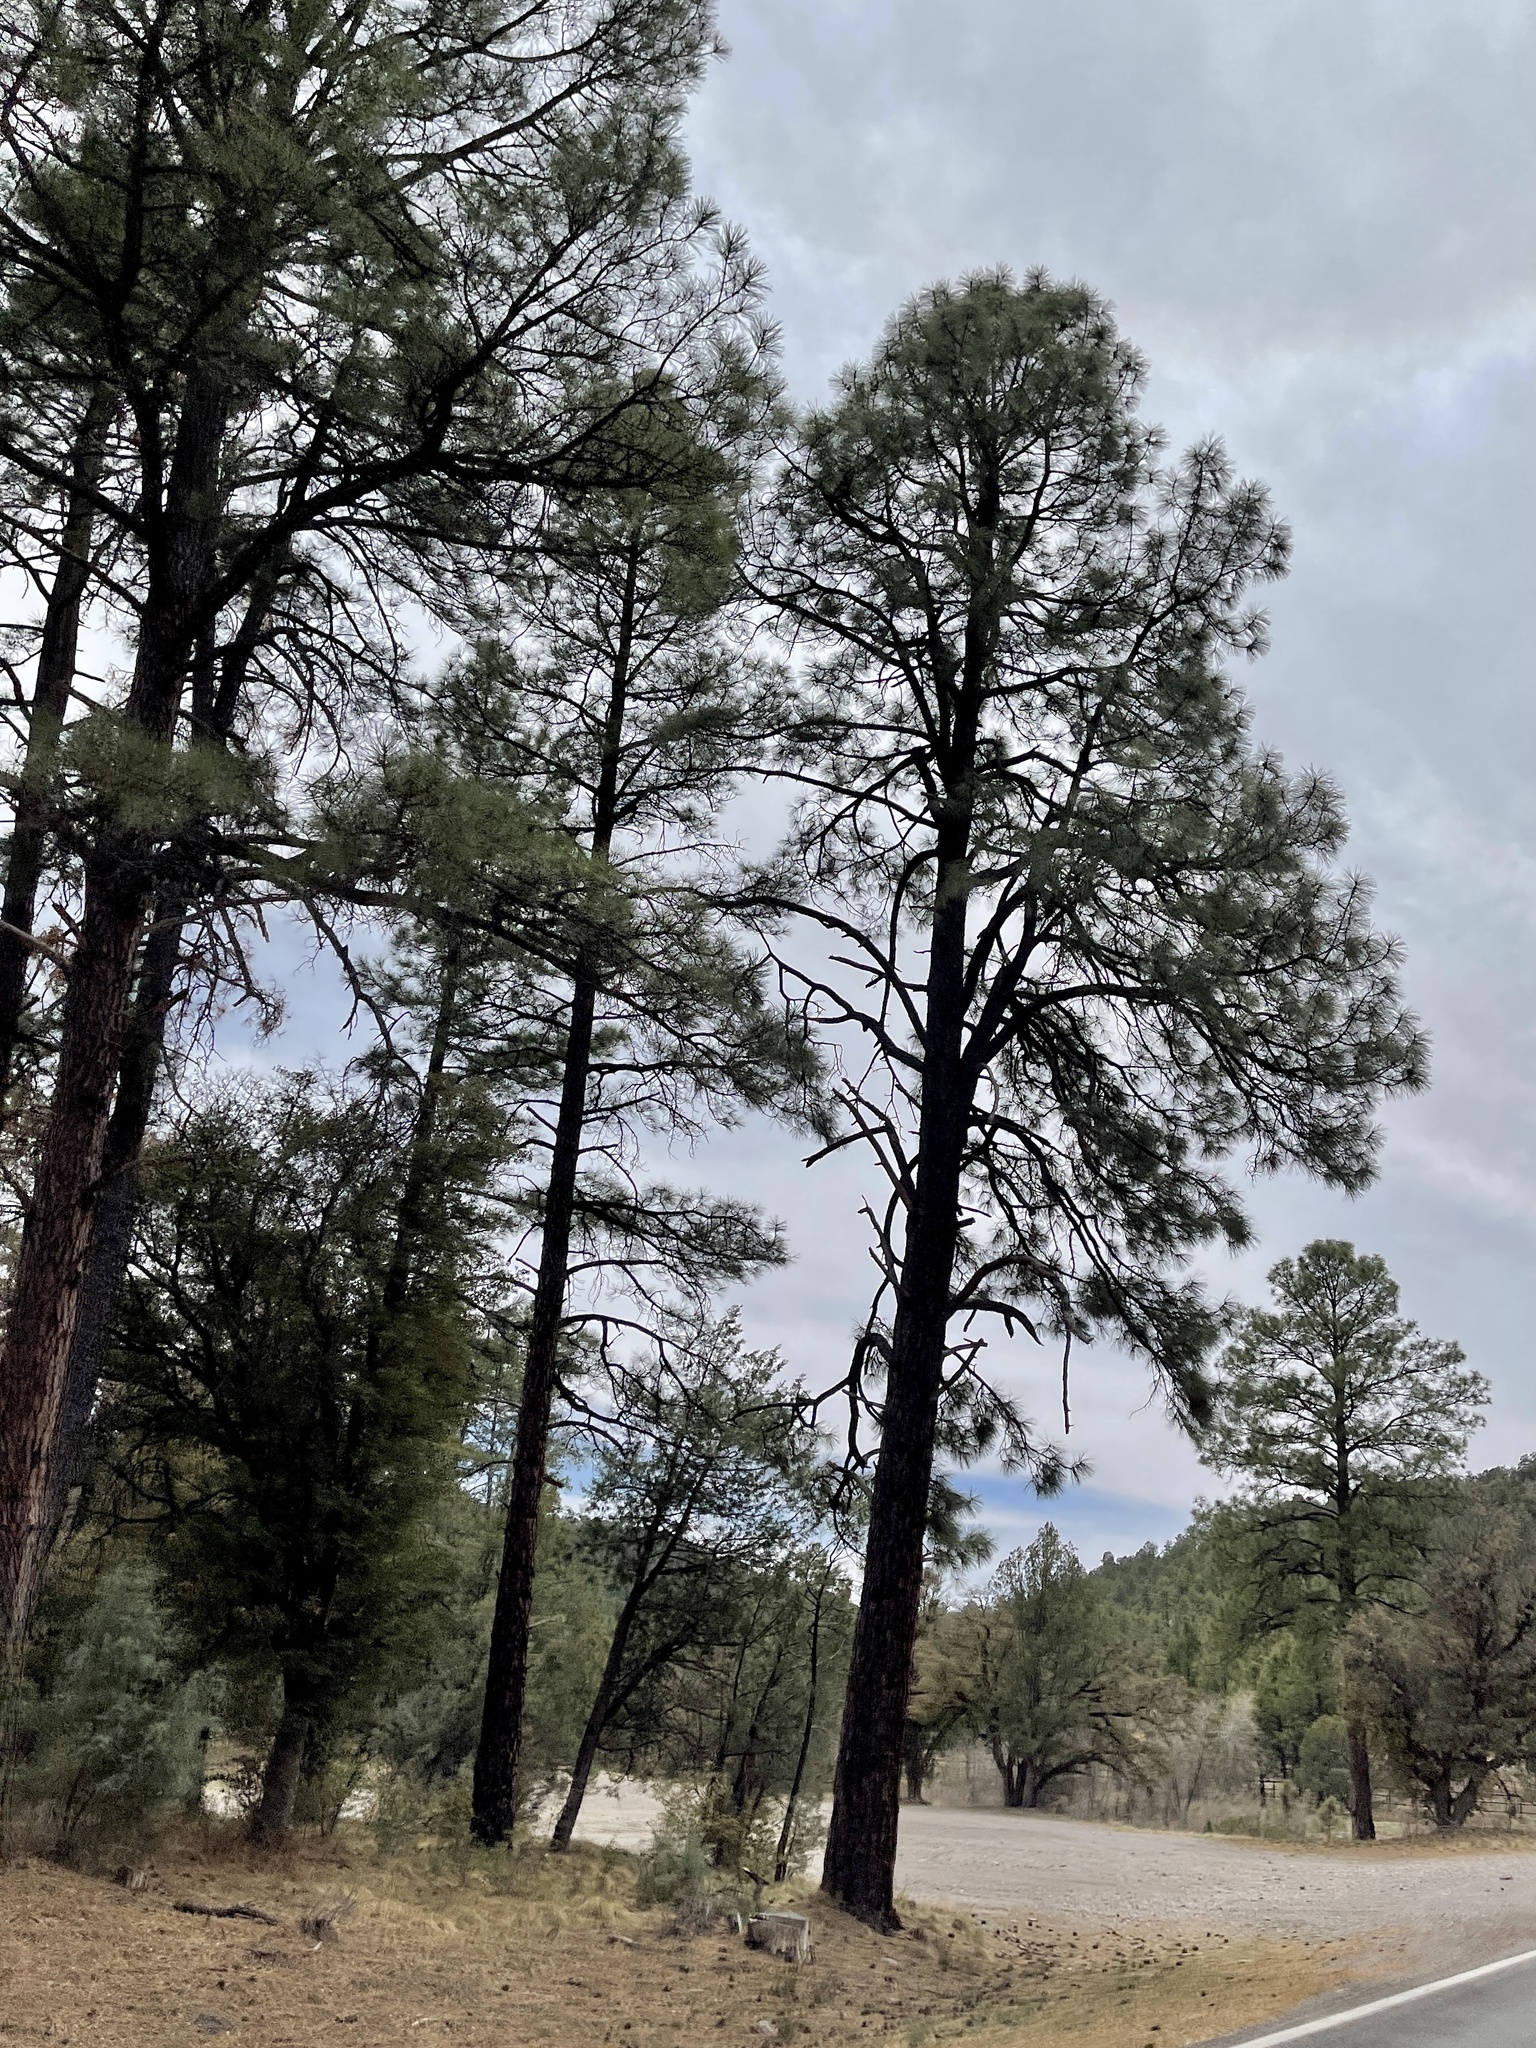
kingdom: Plantae
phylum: Tracheophyta
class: Pinopsida
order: Pinales
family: Pinaceae
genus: Pinus
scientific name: Pinus ponderosa
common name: Western yellow-pine
